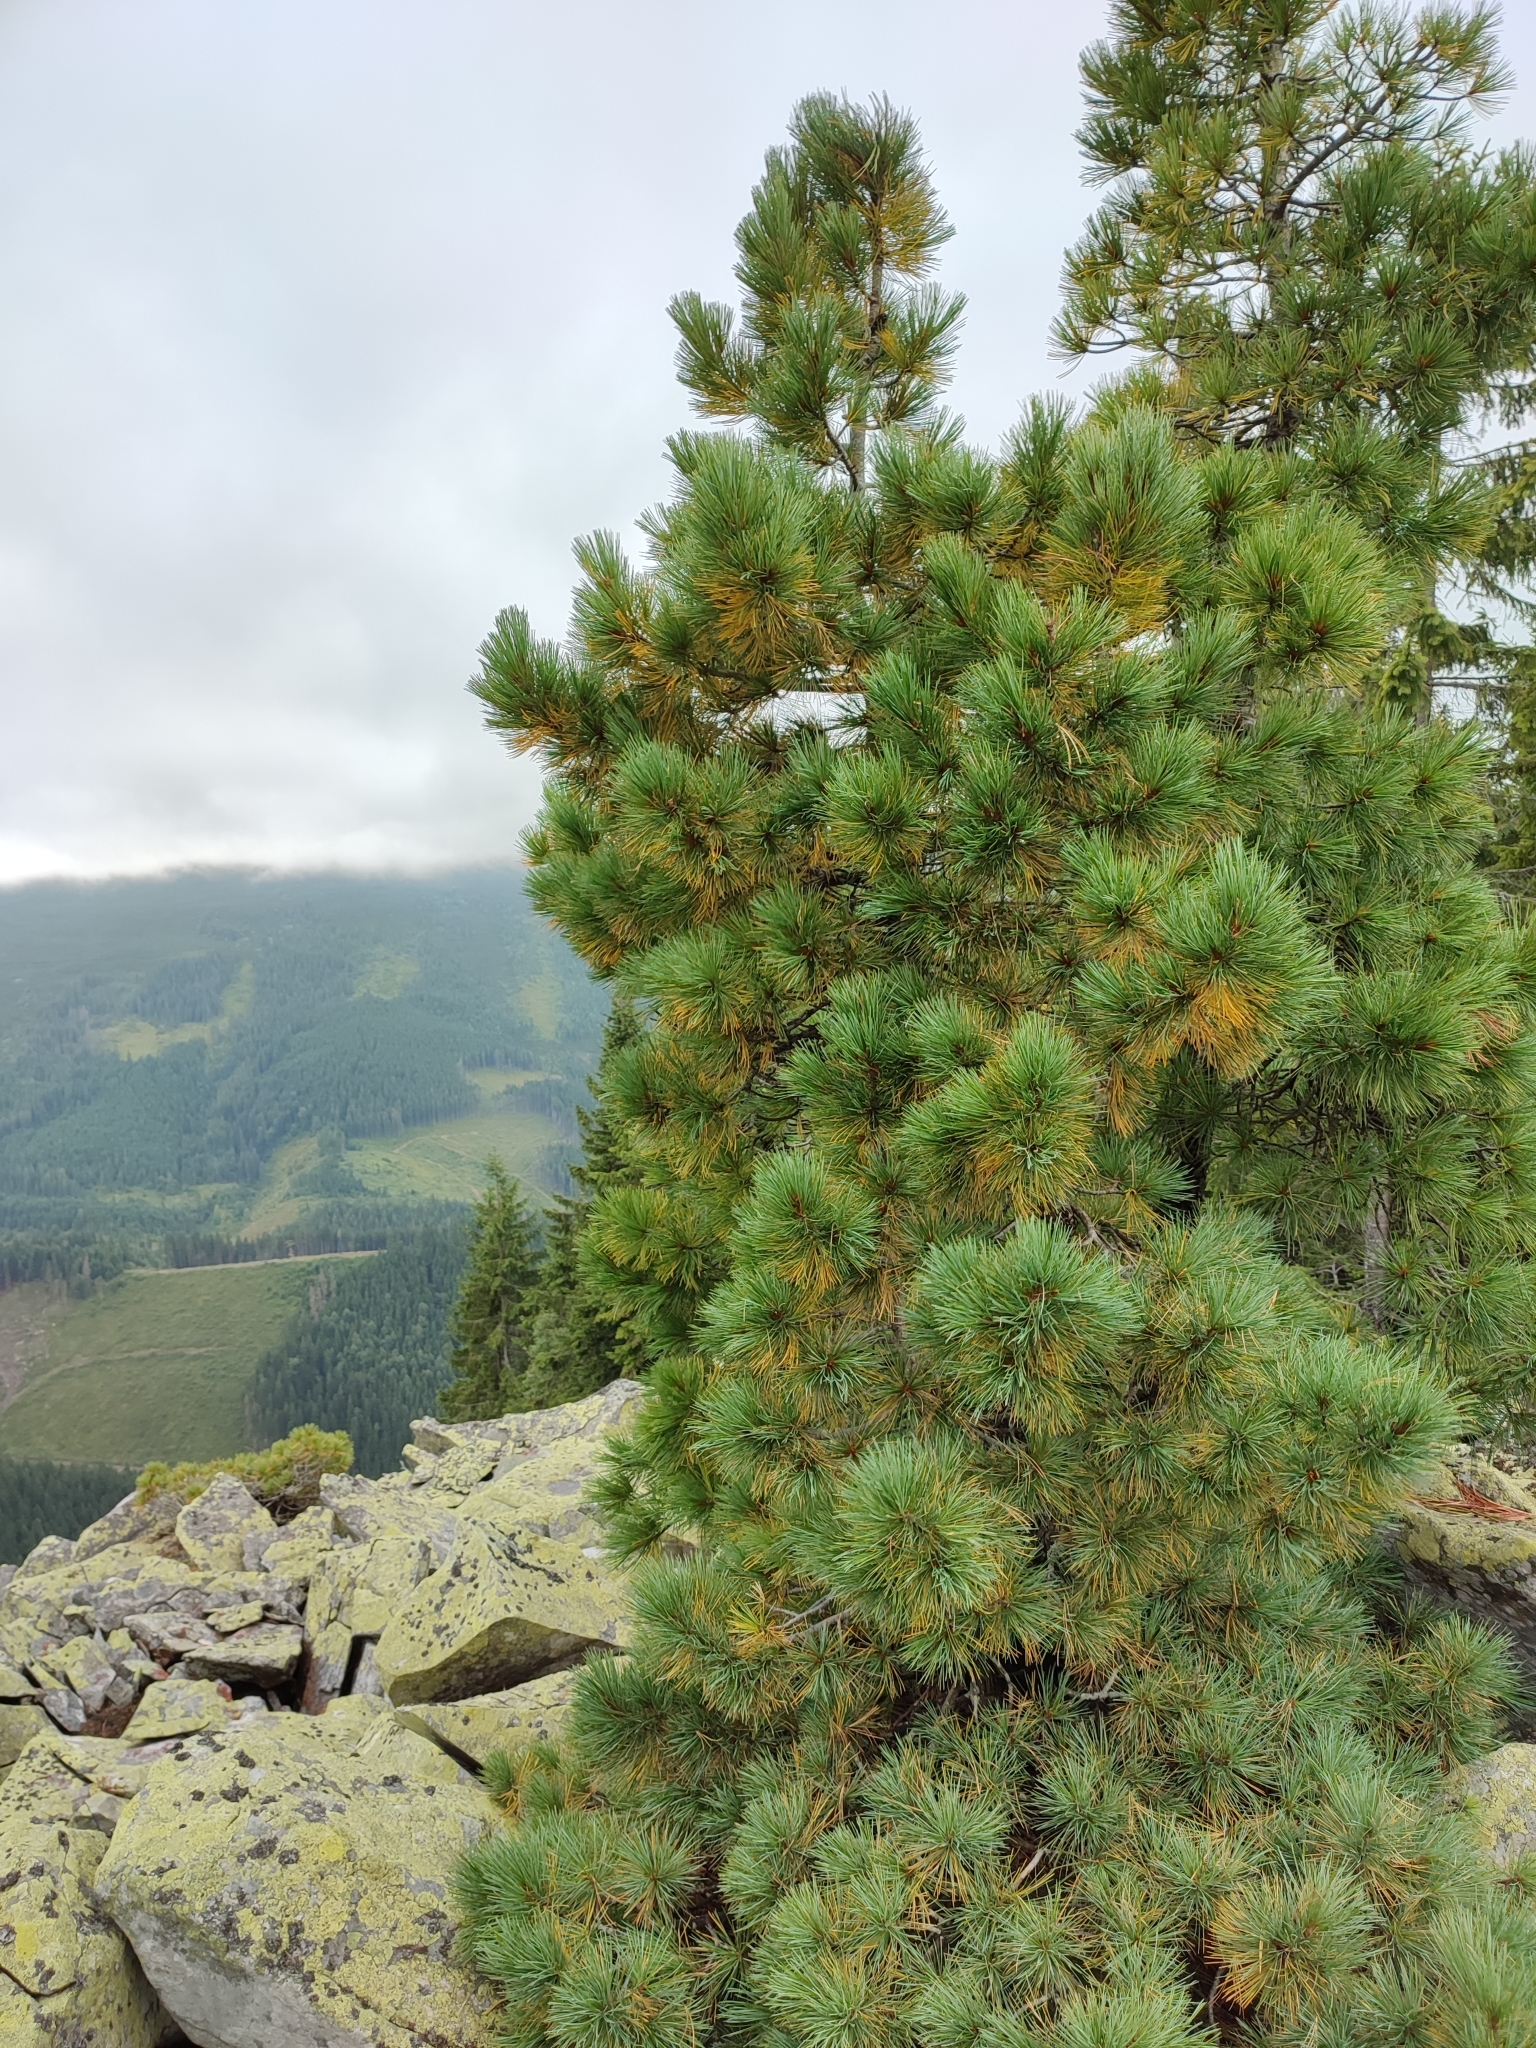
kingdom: Plantae
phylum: Tracheophyta
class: Pinopsida
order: Pinales
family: Pinaceae
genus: Pinus
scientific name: Pinus cembra
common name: Arolla pine
